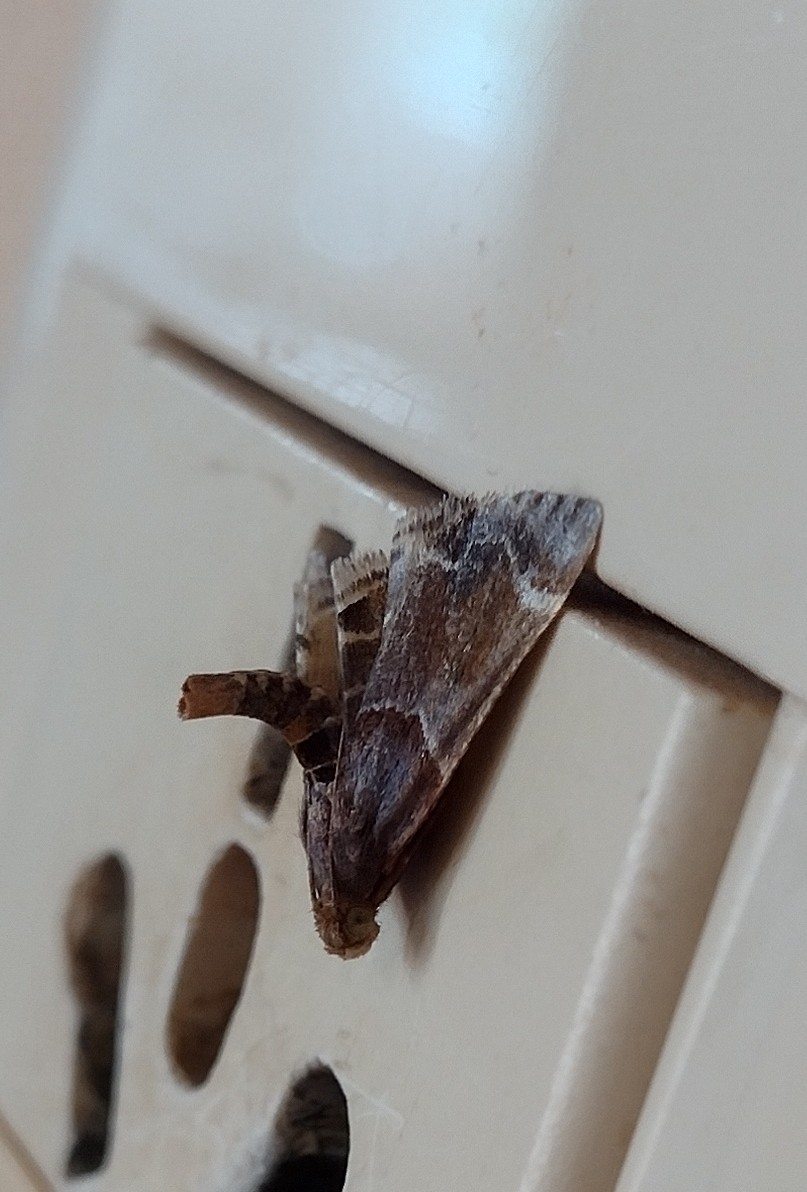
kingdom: Animalia
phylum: Arthropoda
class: Insecta
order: Lepidoptera
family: Pyralidae
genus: Pyralis
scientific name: Pyralis farinalis
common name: Meal moth
